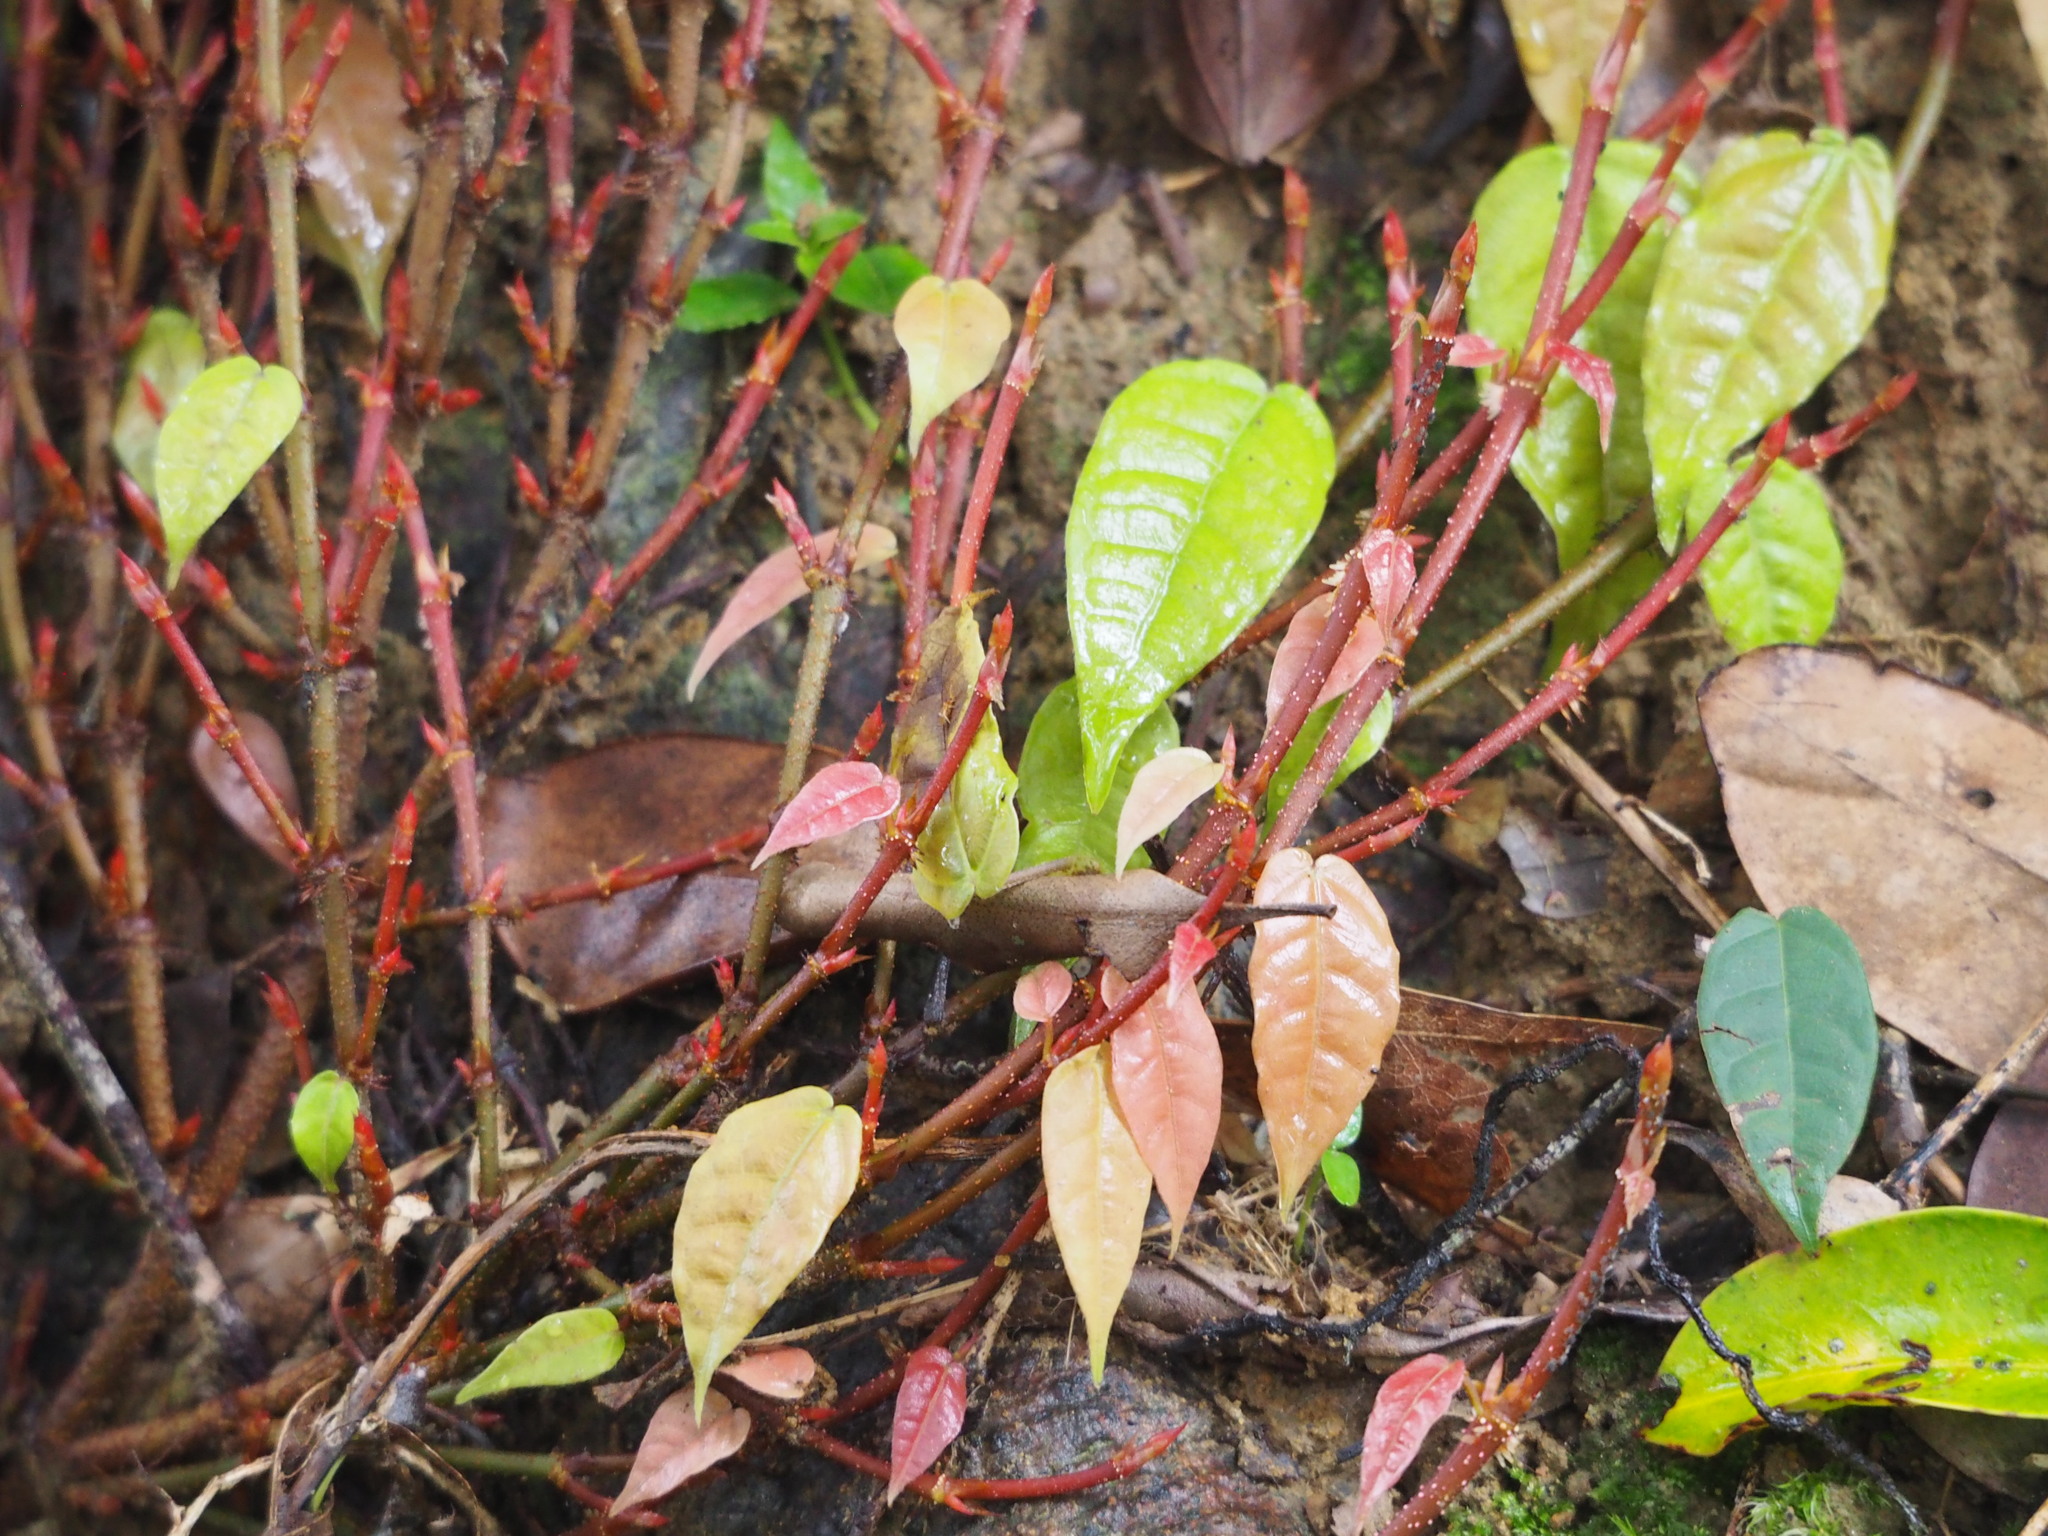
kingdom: Plantae
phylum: Tracheophyta
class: Magnoliopsida
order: Rosales
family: Moraceae
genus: Ficus
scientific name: Ficus sarmentosa
